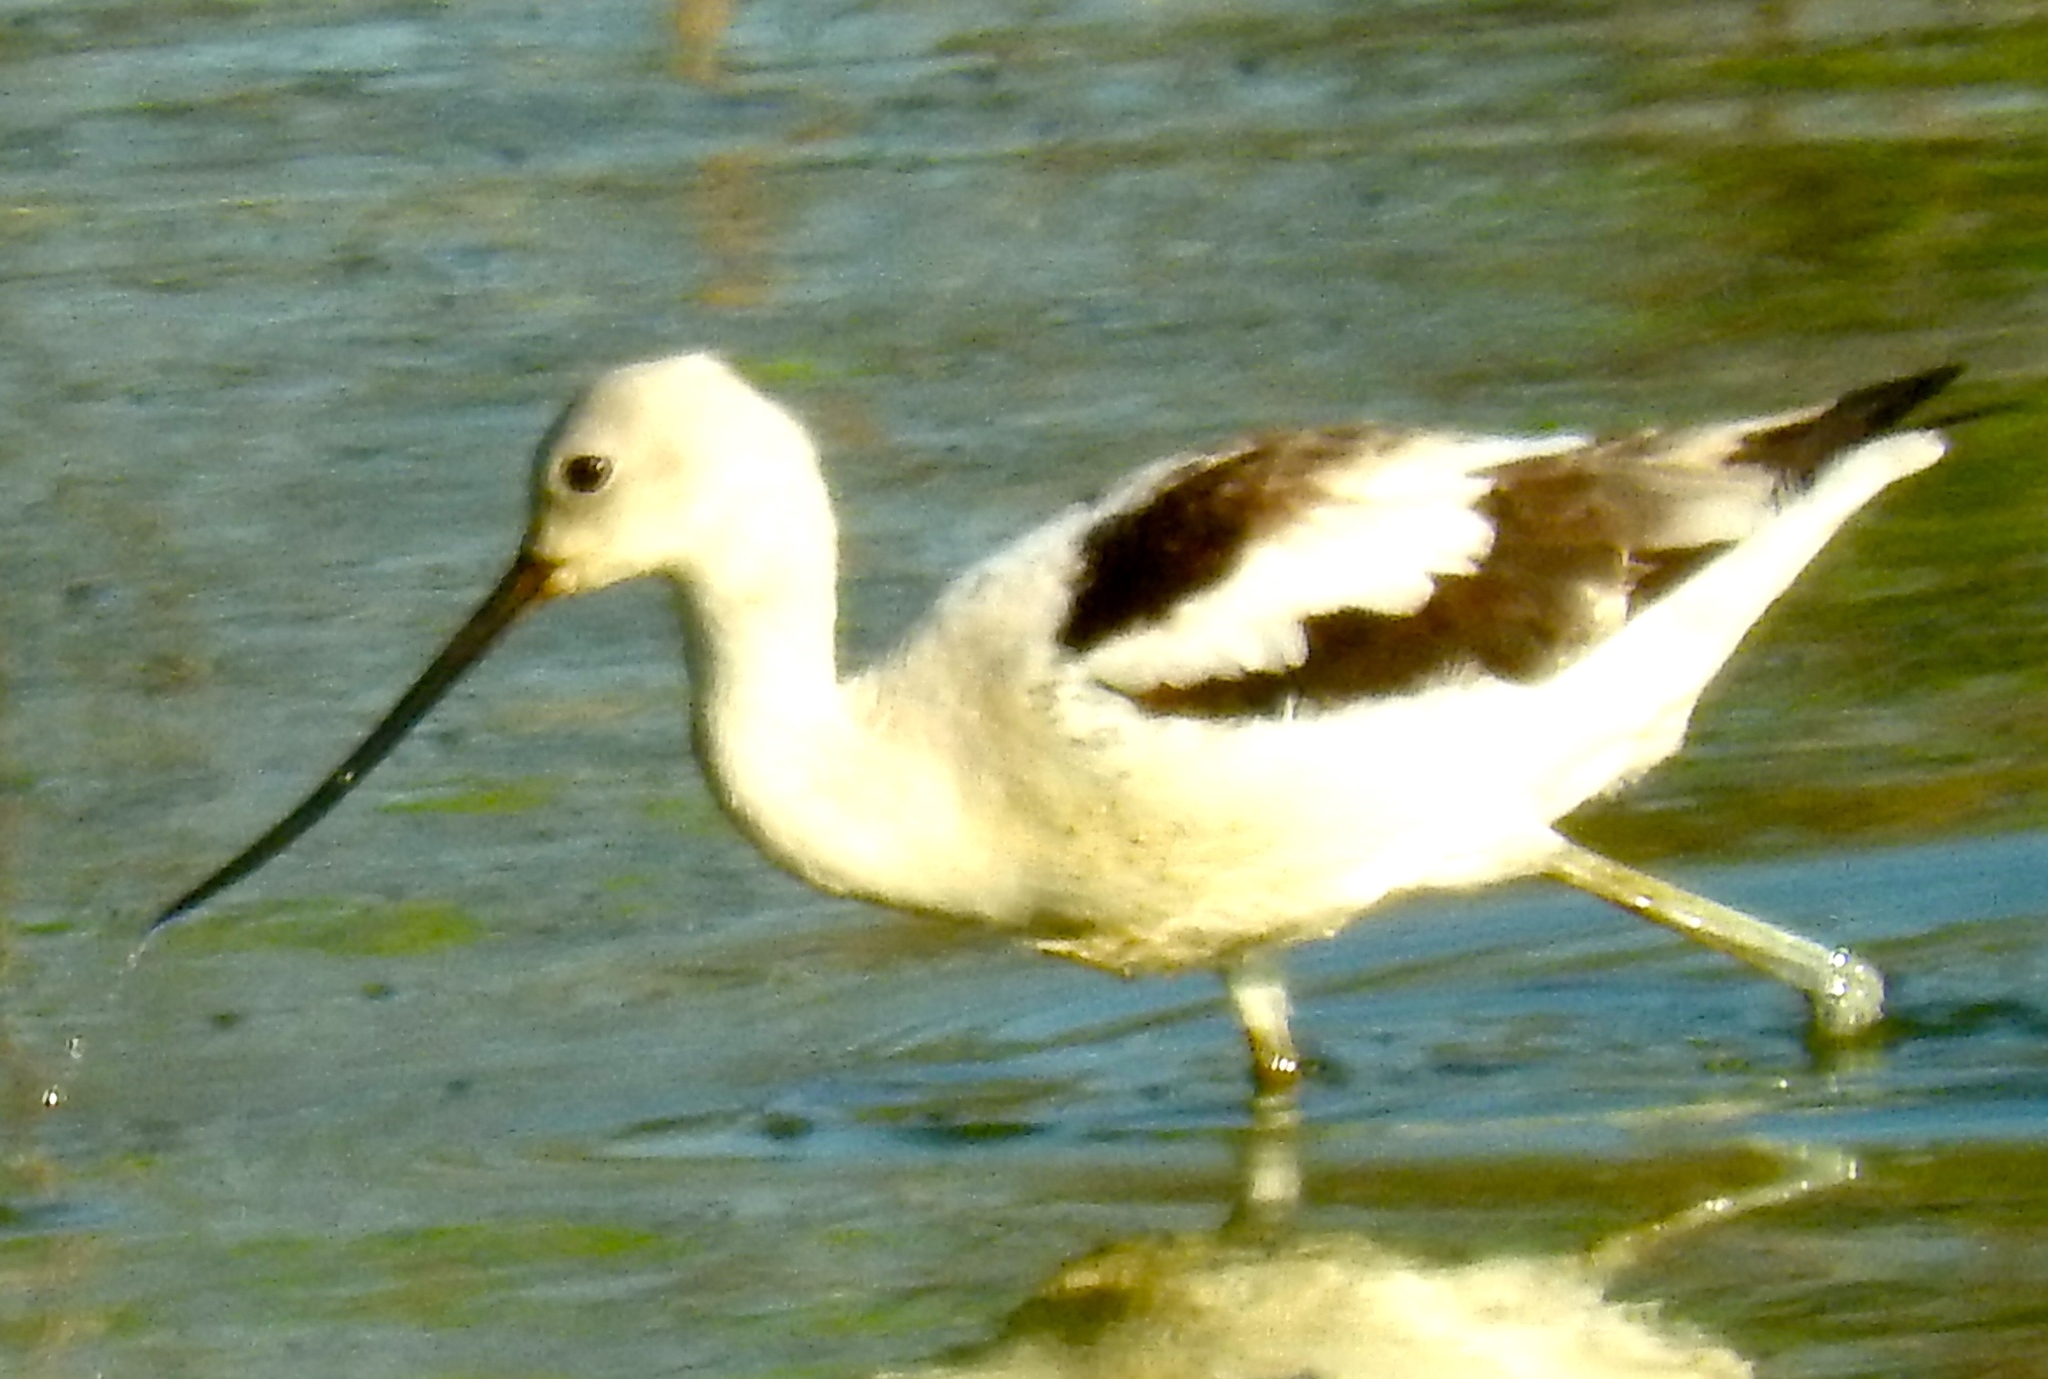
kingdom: Animalia
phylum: Chordata
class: Aves
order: Charadriiformes
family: Recurvirostridae
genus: Recurvirostra
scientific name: Recurvirostra americana
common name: American avocet
